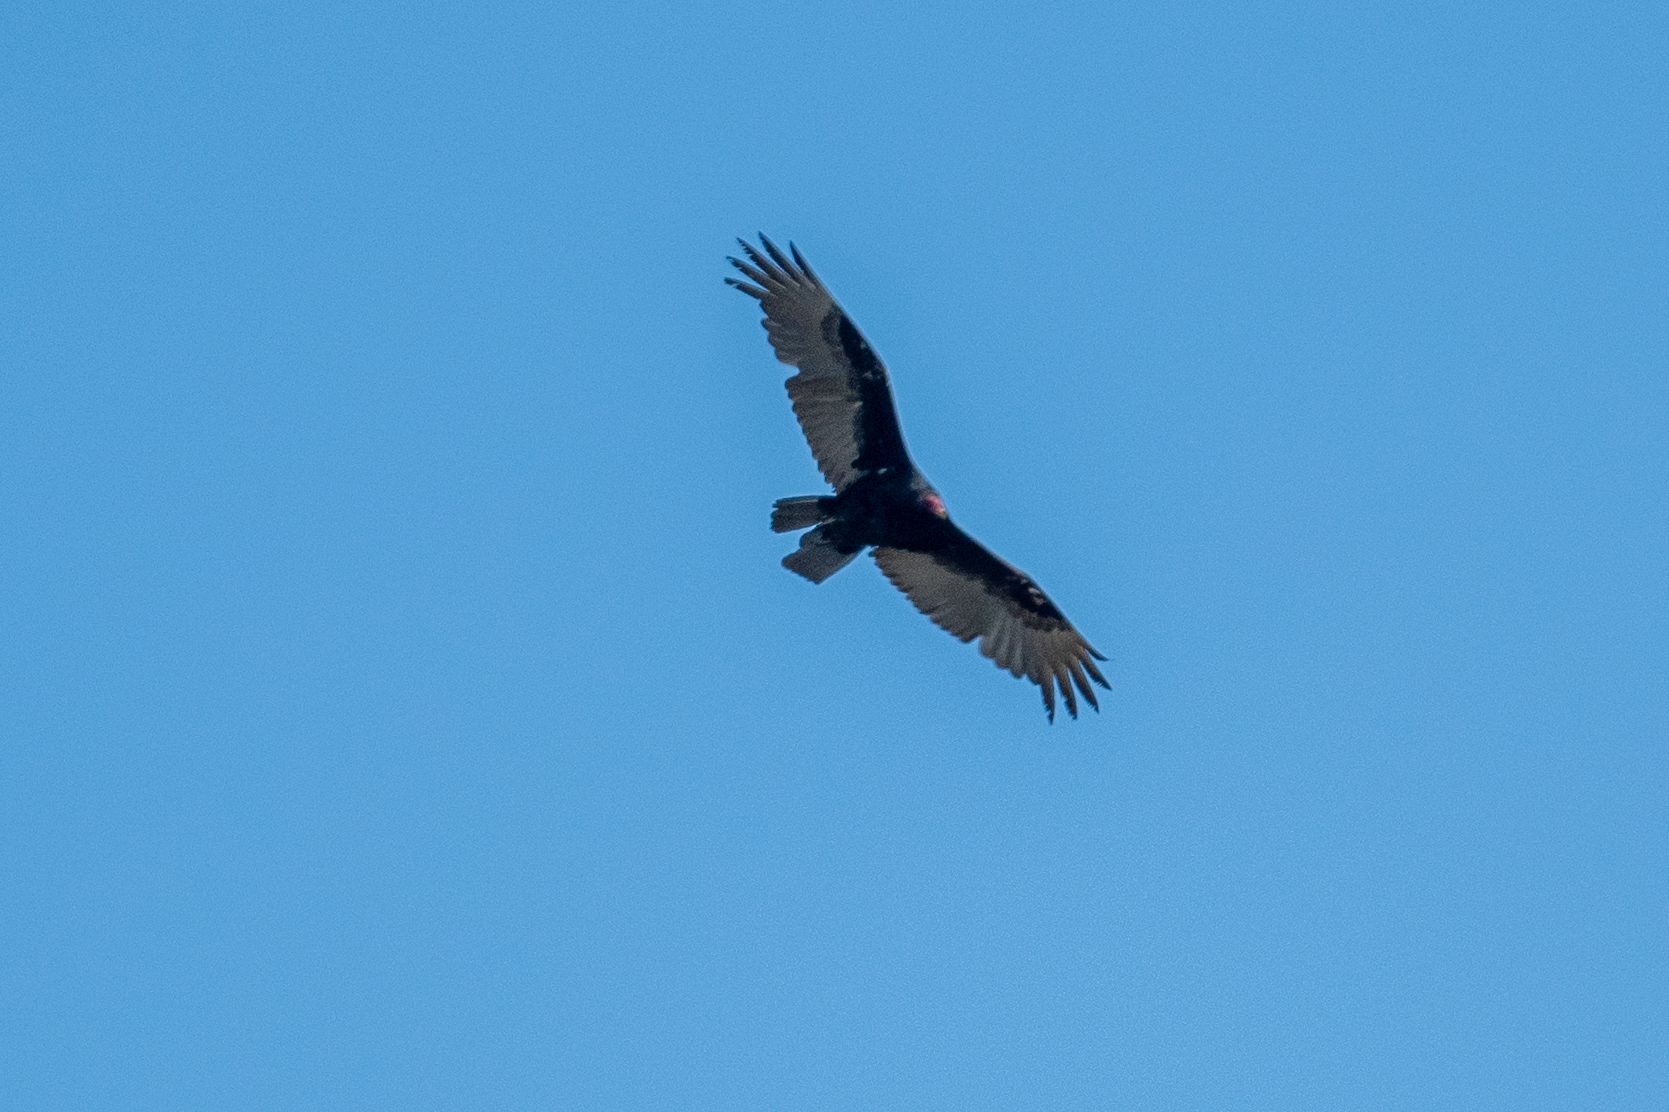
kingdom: Animalia
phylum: Chordata
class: Aves
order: Accipitriformes
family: Cathartidae
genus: Cathartes
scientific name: Cathartes aura
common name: Turkey vulture
